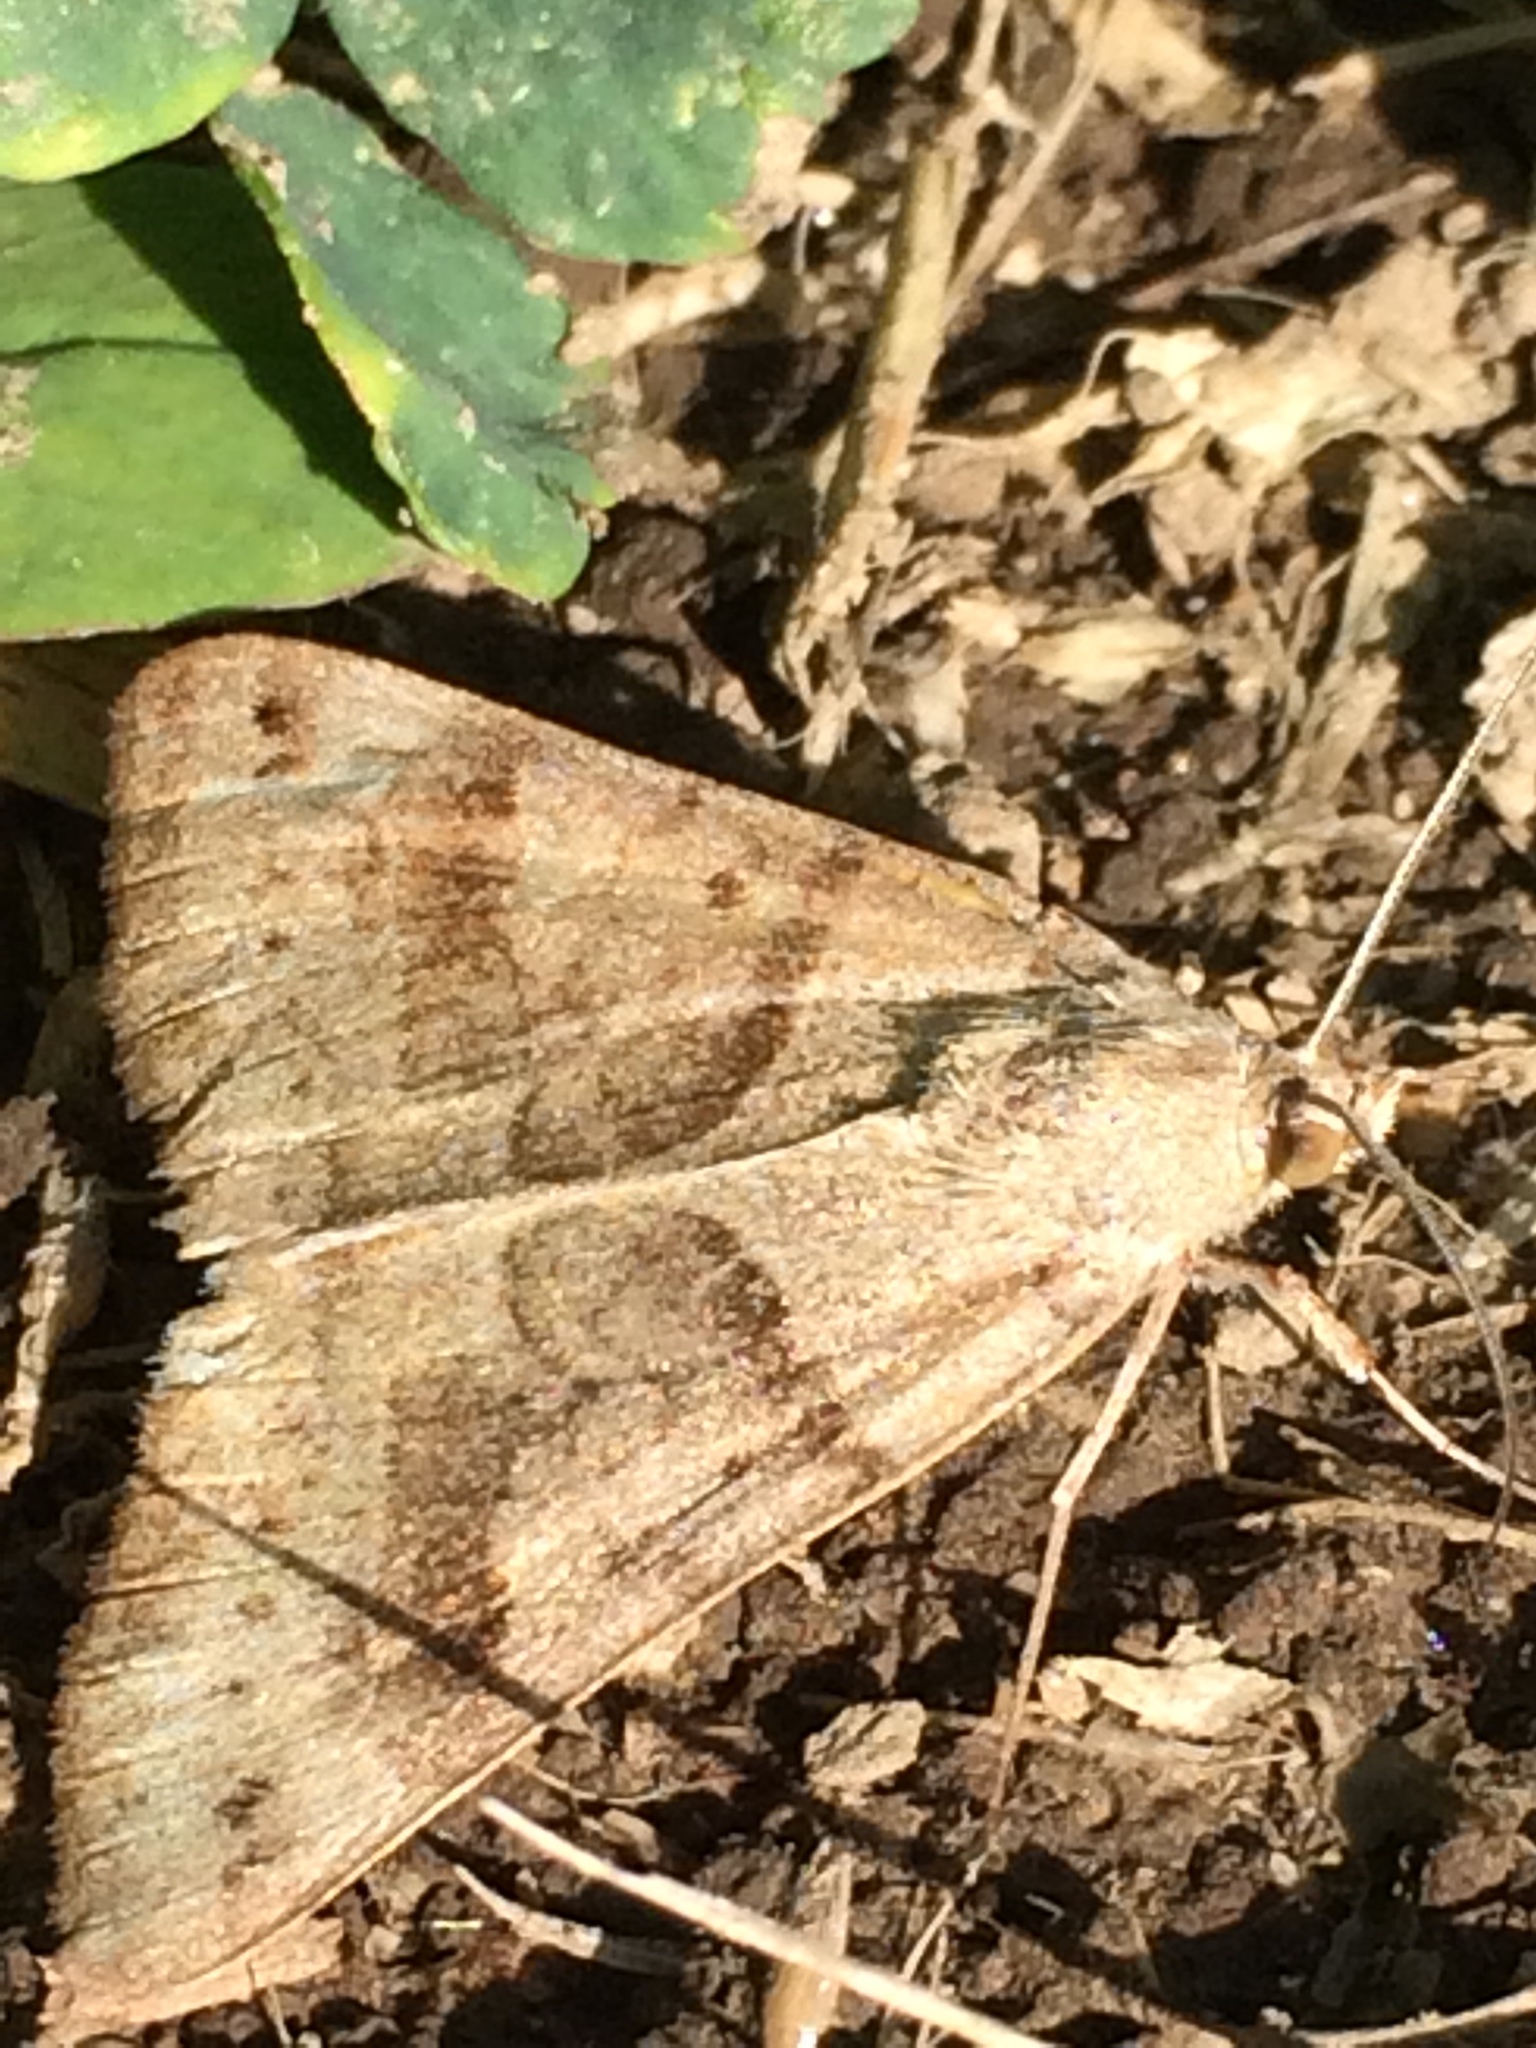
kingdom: Animalia
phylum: Arthropoda
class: Insecta
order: Lepidoptera
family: Erebidae
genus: Caenurgina
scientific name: Caenurgina erechtea
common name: Forage looper moth
